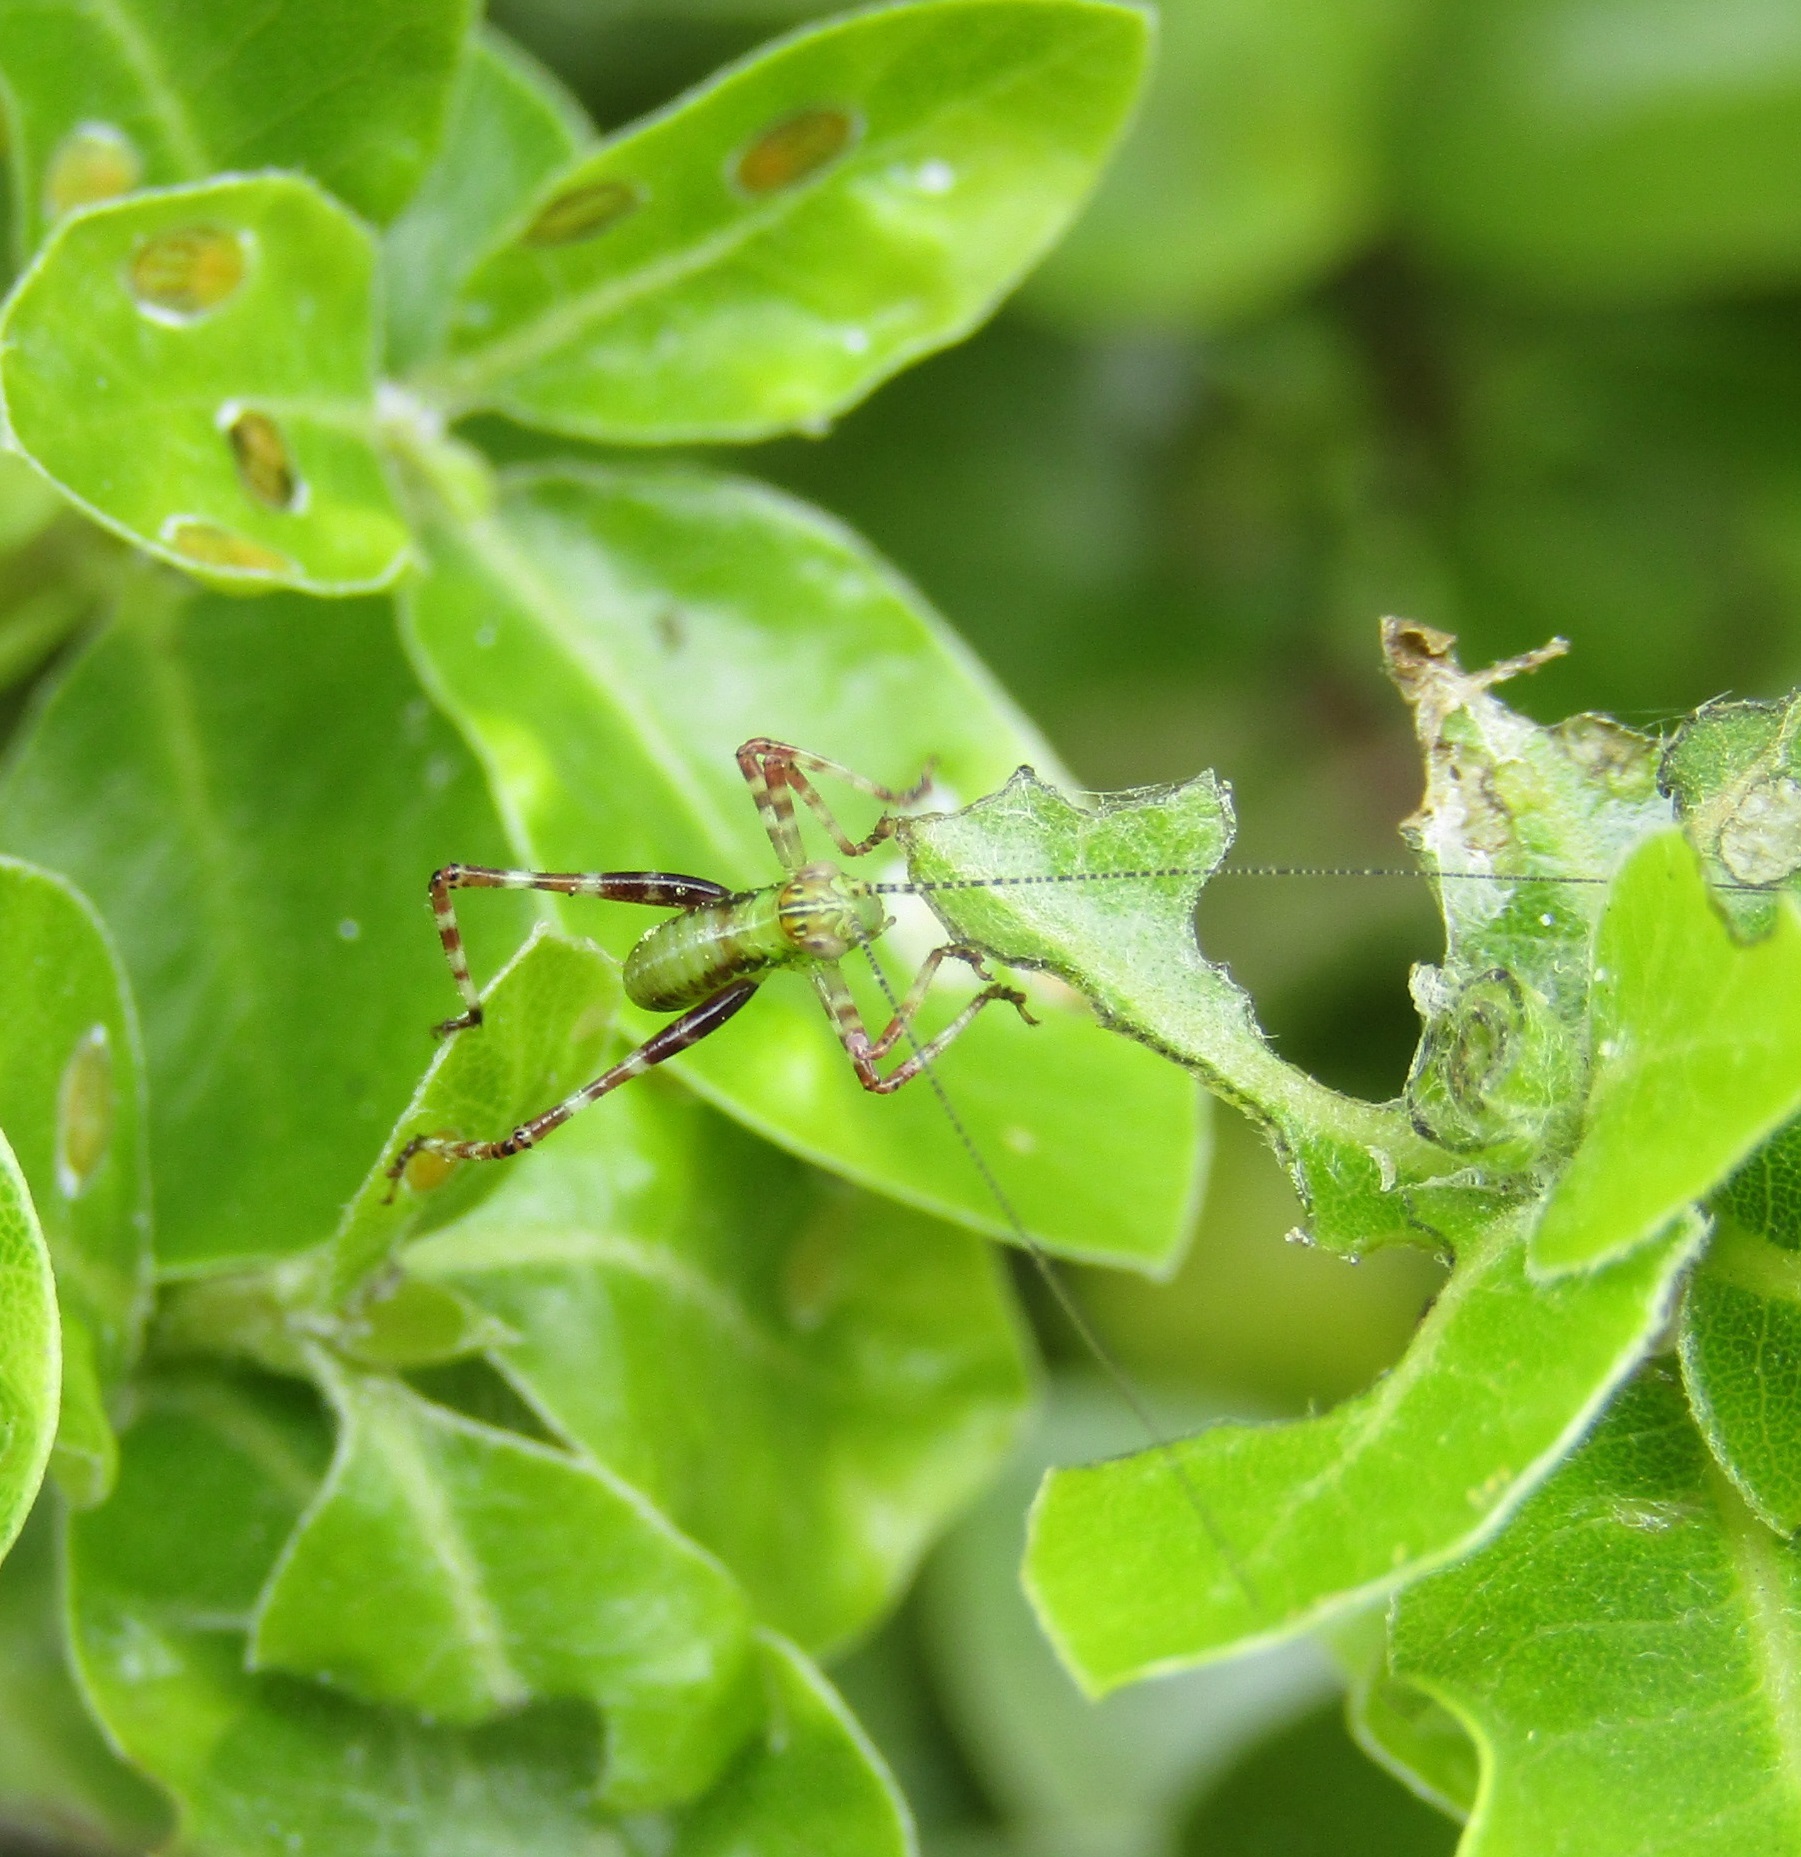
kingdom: Animalia
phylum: Arthropoda
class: Insecta
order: Orthoptera
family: Tettigoniidae
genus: Caedicia
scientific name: Caedicia simplex
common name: Common garden katydid
